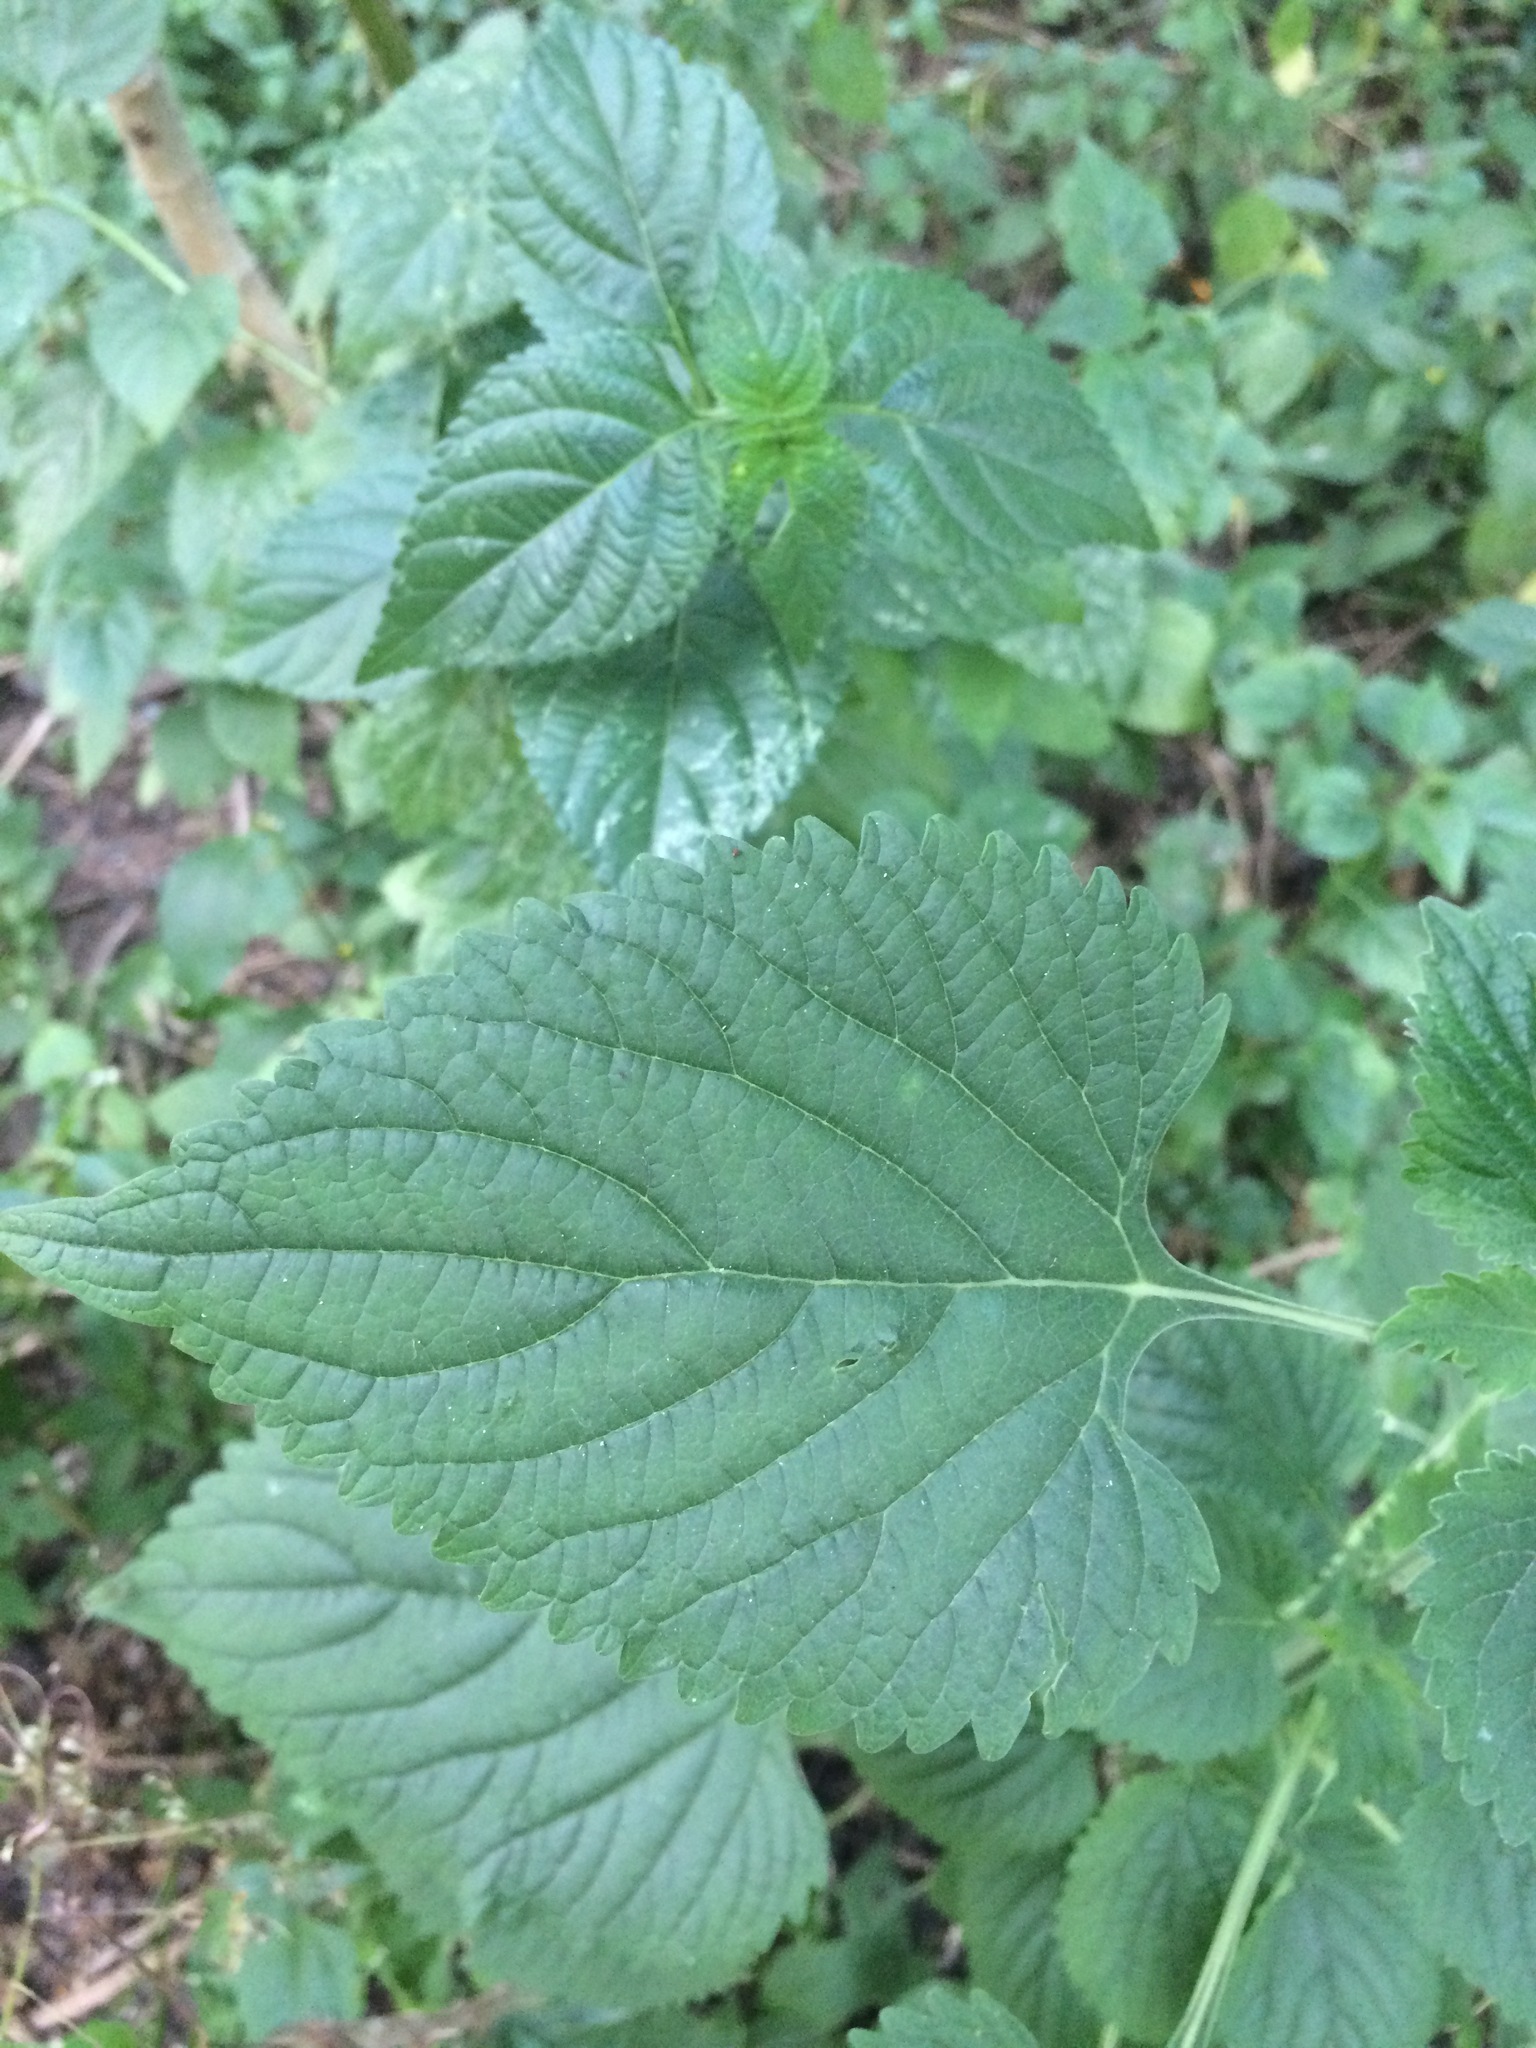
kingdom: Plantae
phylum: Tracheophyta
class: Magnoliopsida
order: Lamiales
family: Lamiaceae
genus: Leonotis
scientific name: Leonotis nepetifolia
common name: Christmas candlestick
